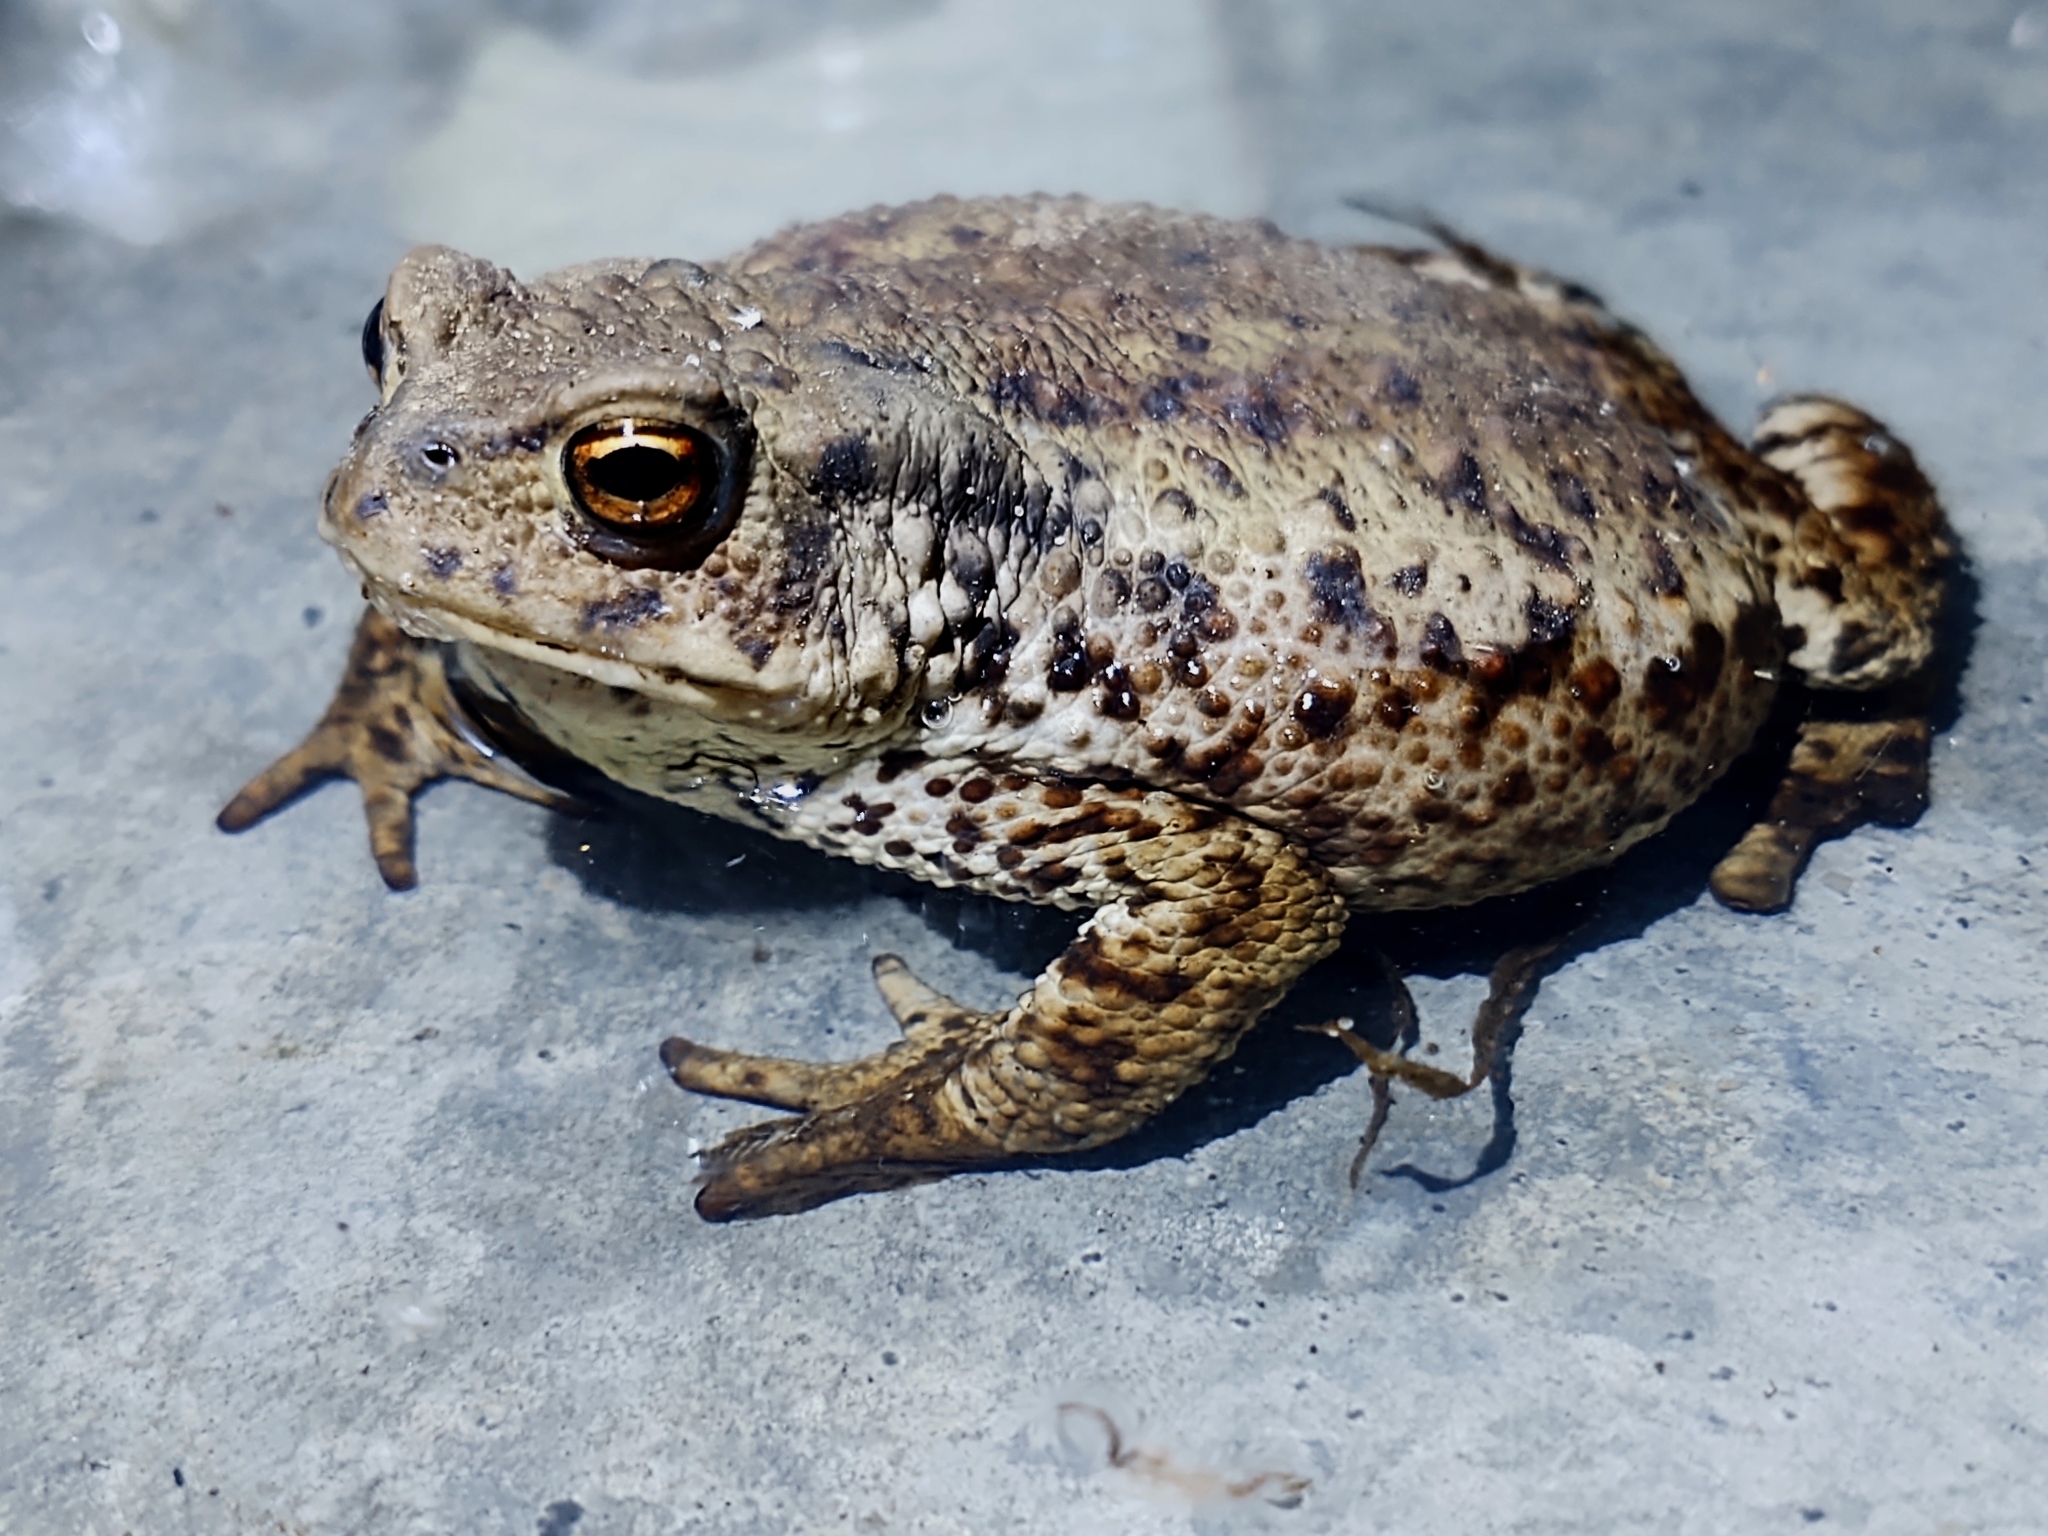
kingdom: Animalia
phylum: Chordata
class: Amphibia
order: Anura
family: Bufonidae
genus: Bufo
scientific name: Bufo bufo
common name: Common toad
